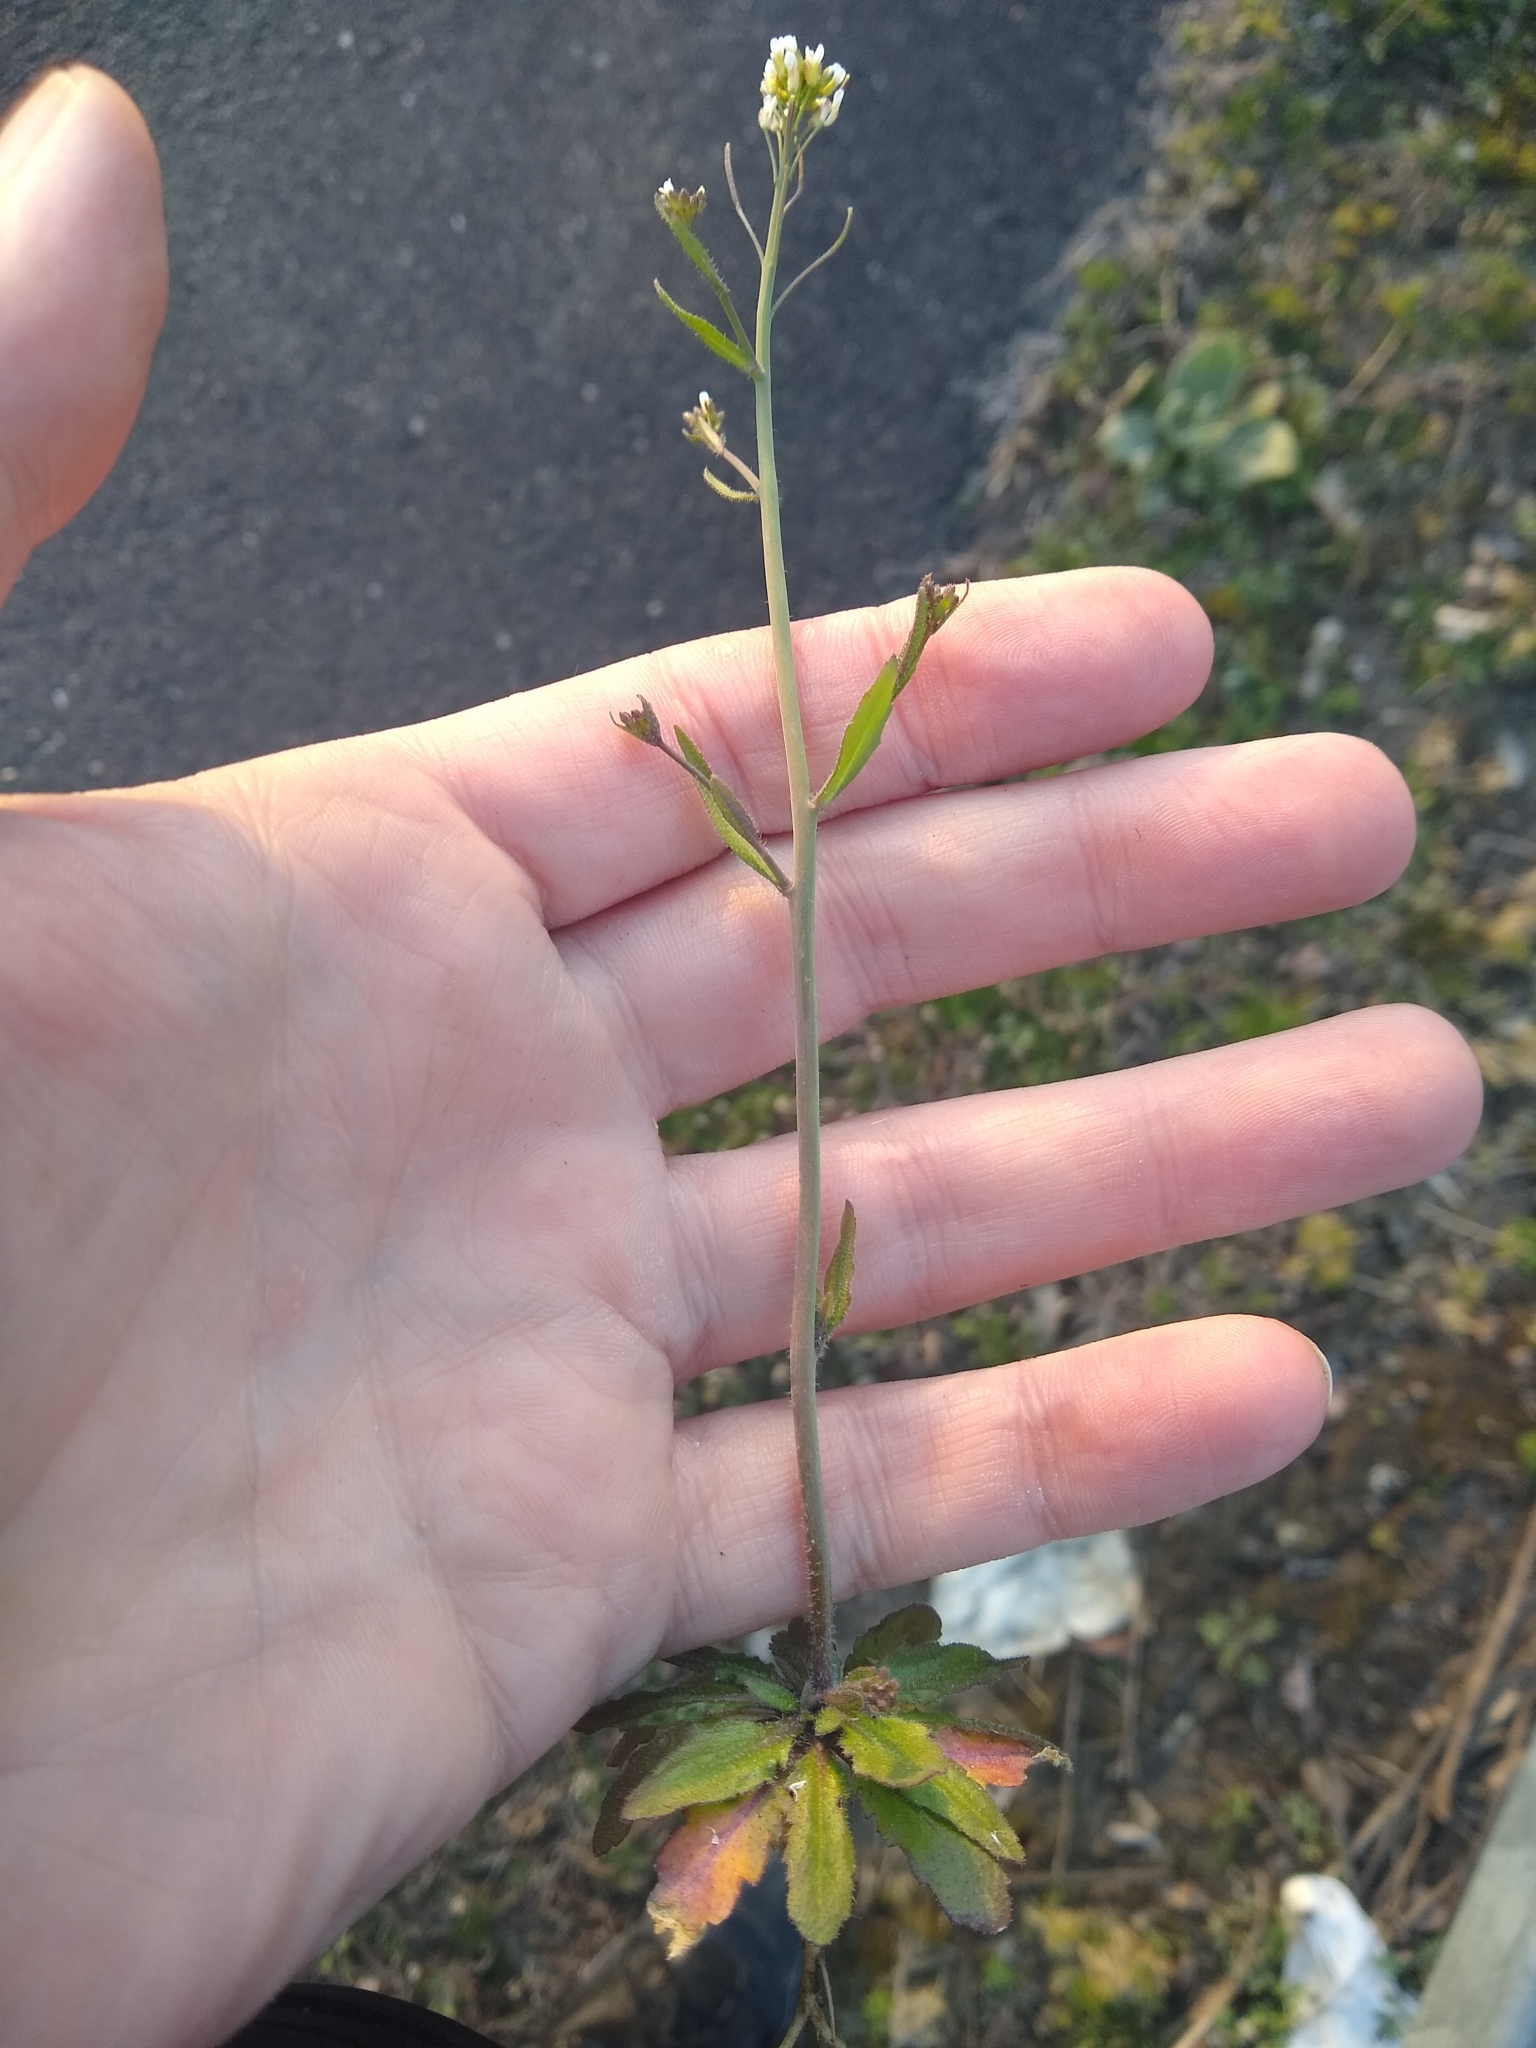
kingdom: Plantae
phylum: Tracheophyta
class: Magnoliopsida
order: Brassicales
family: Brassicaceae
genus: Arabidopsis
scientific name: Arabidopsis thaliana
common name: Thale cress
